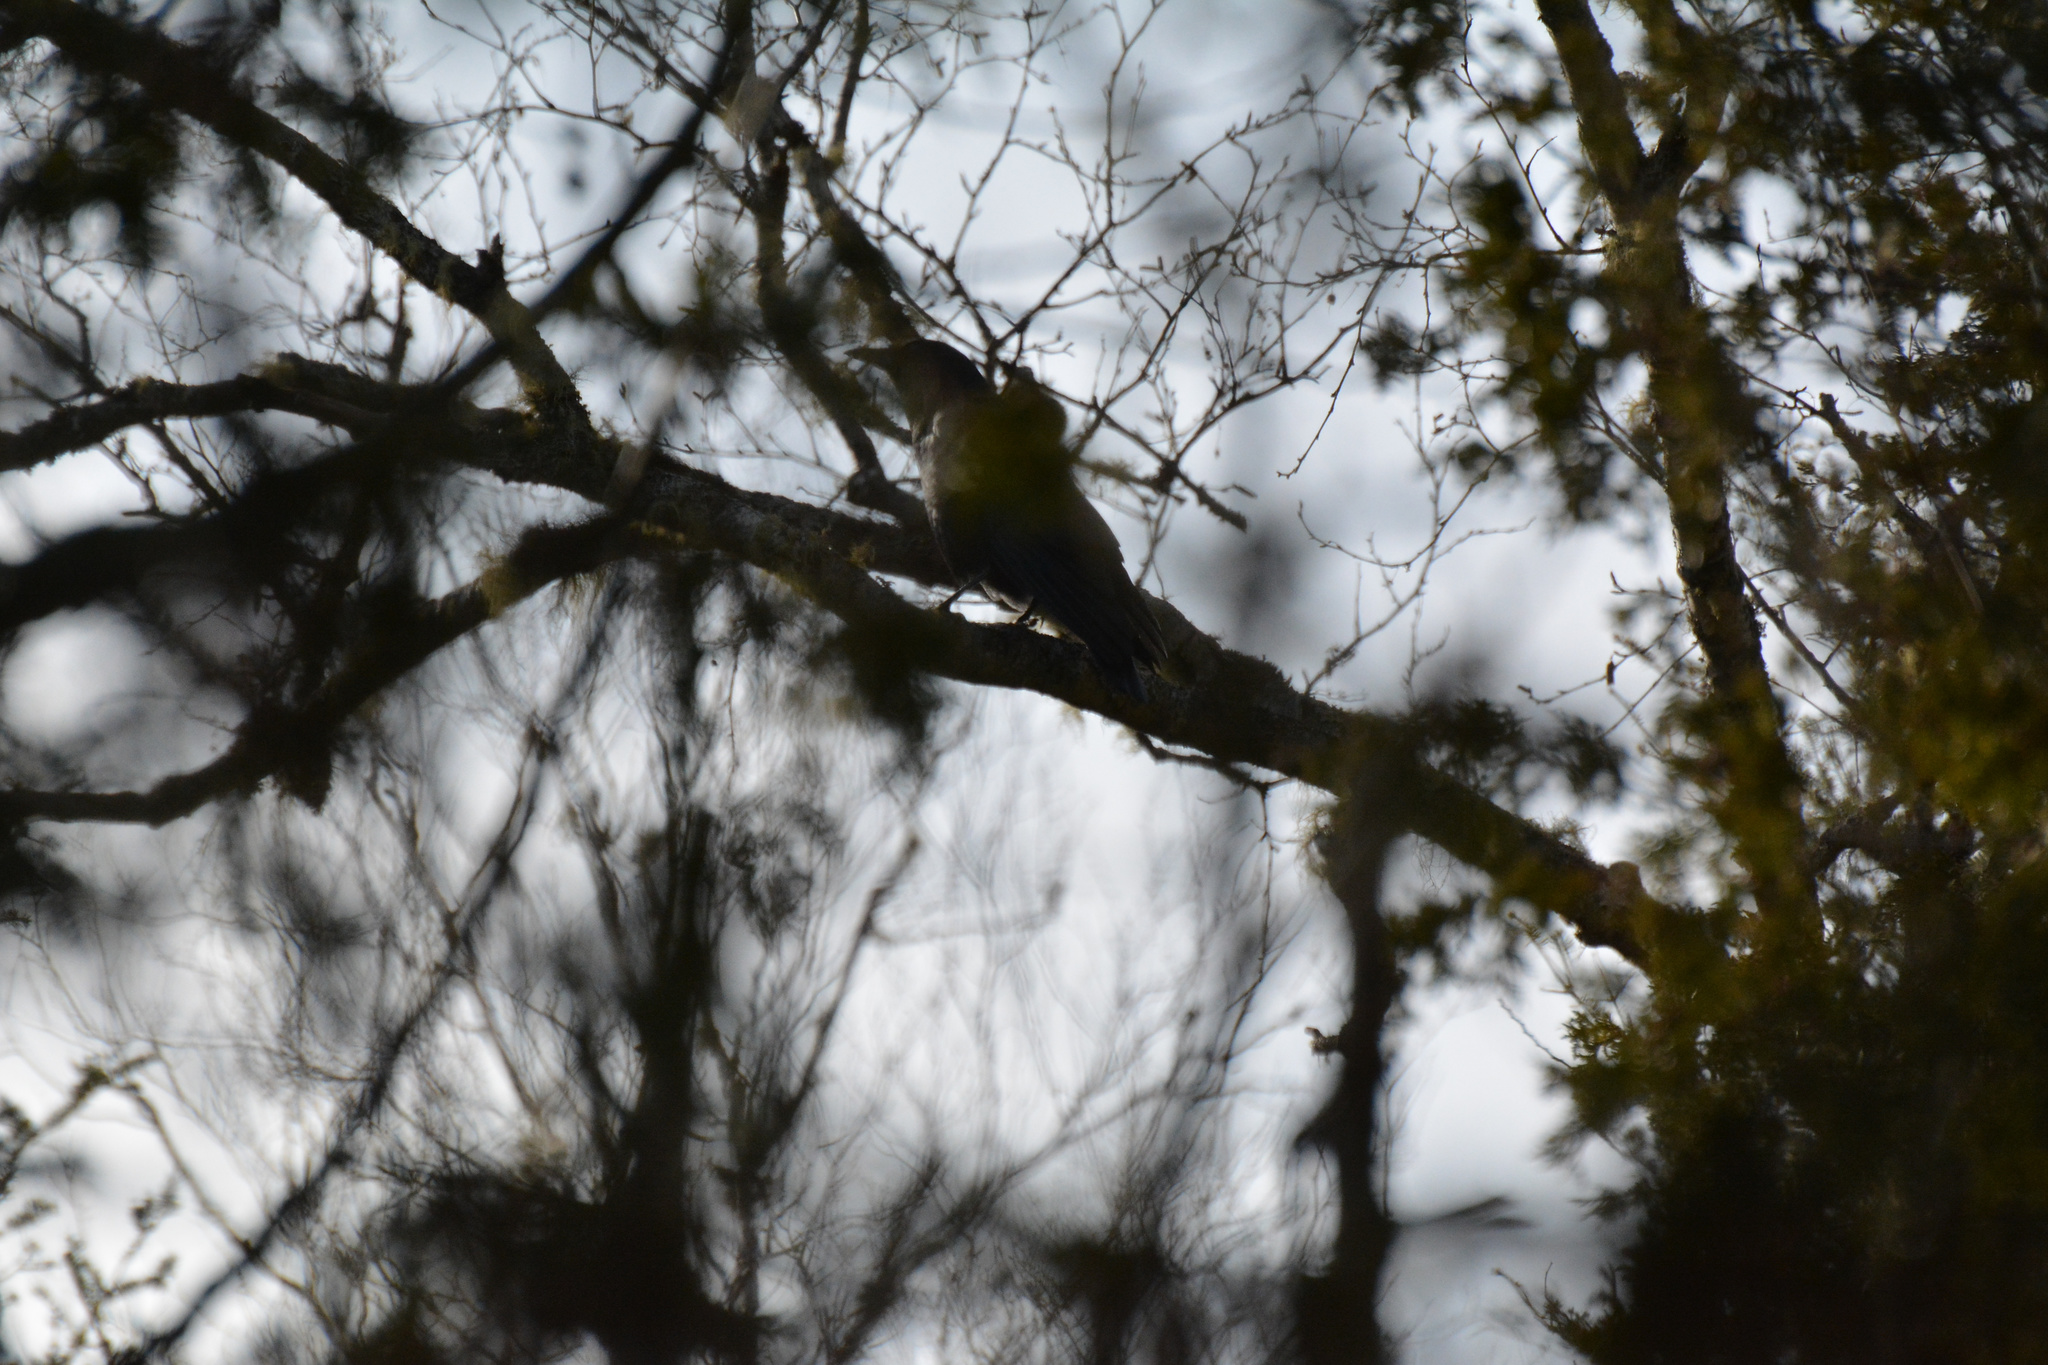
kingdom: Animalia
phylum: Chordata
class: Aves
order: Passeriformes
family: Corvidae
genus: Corvus
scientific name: Corvus brachyrhynchos
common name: American crow
